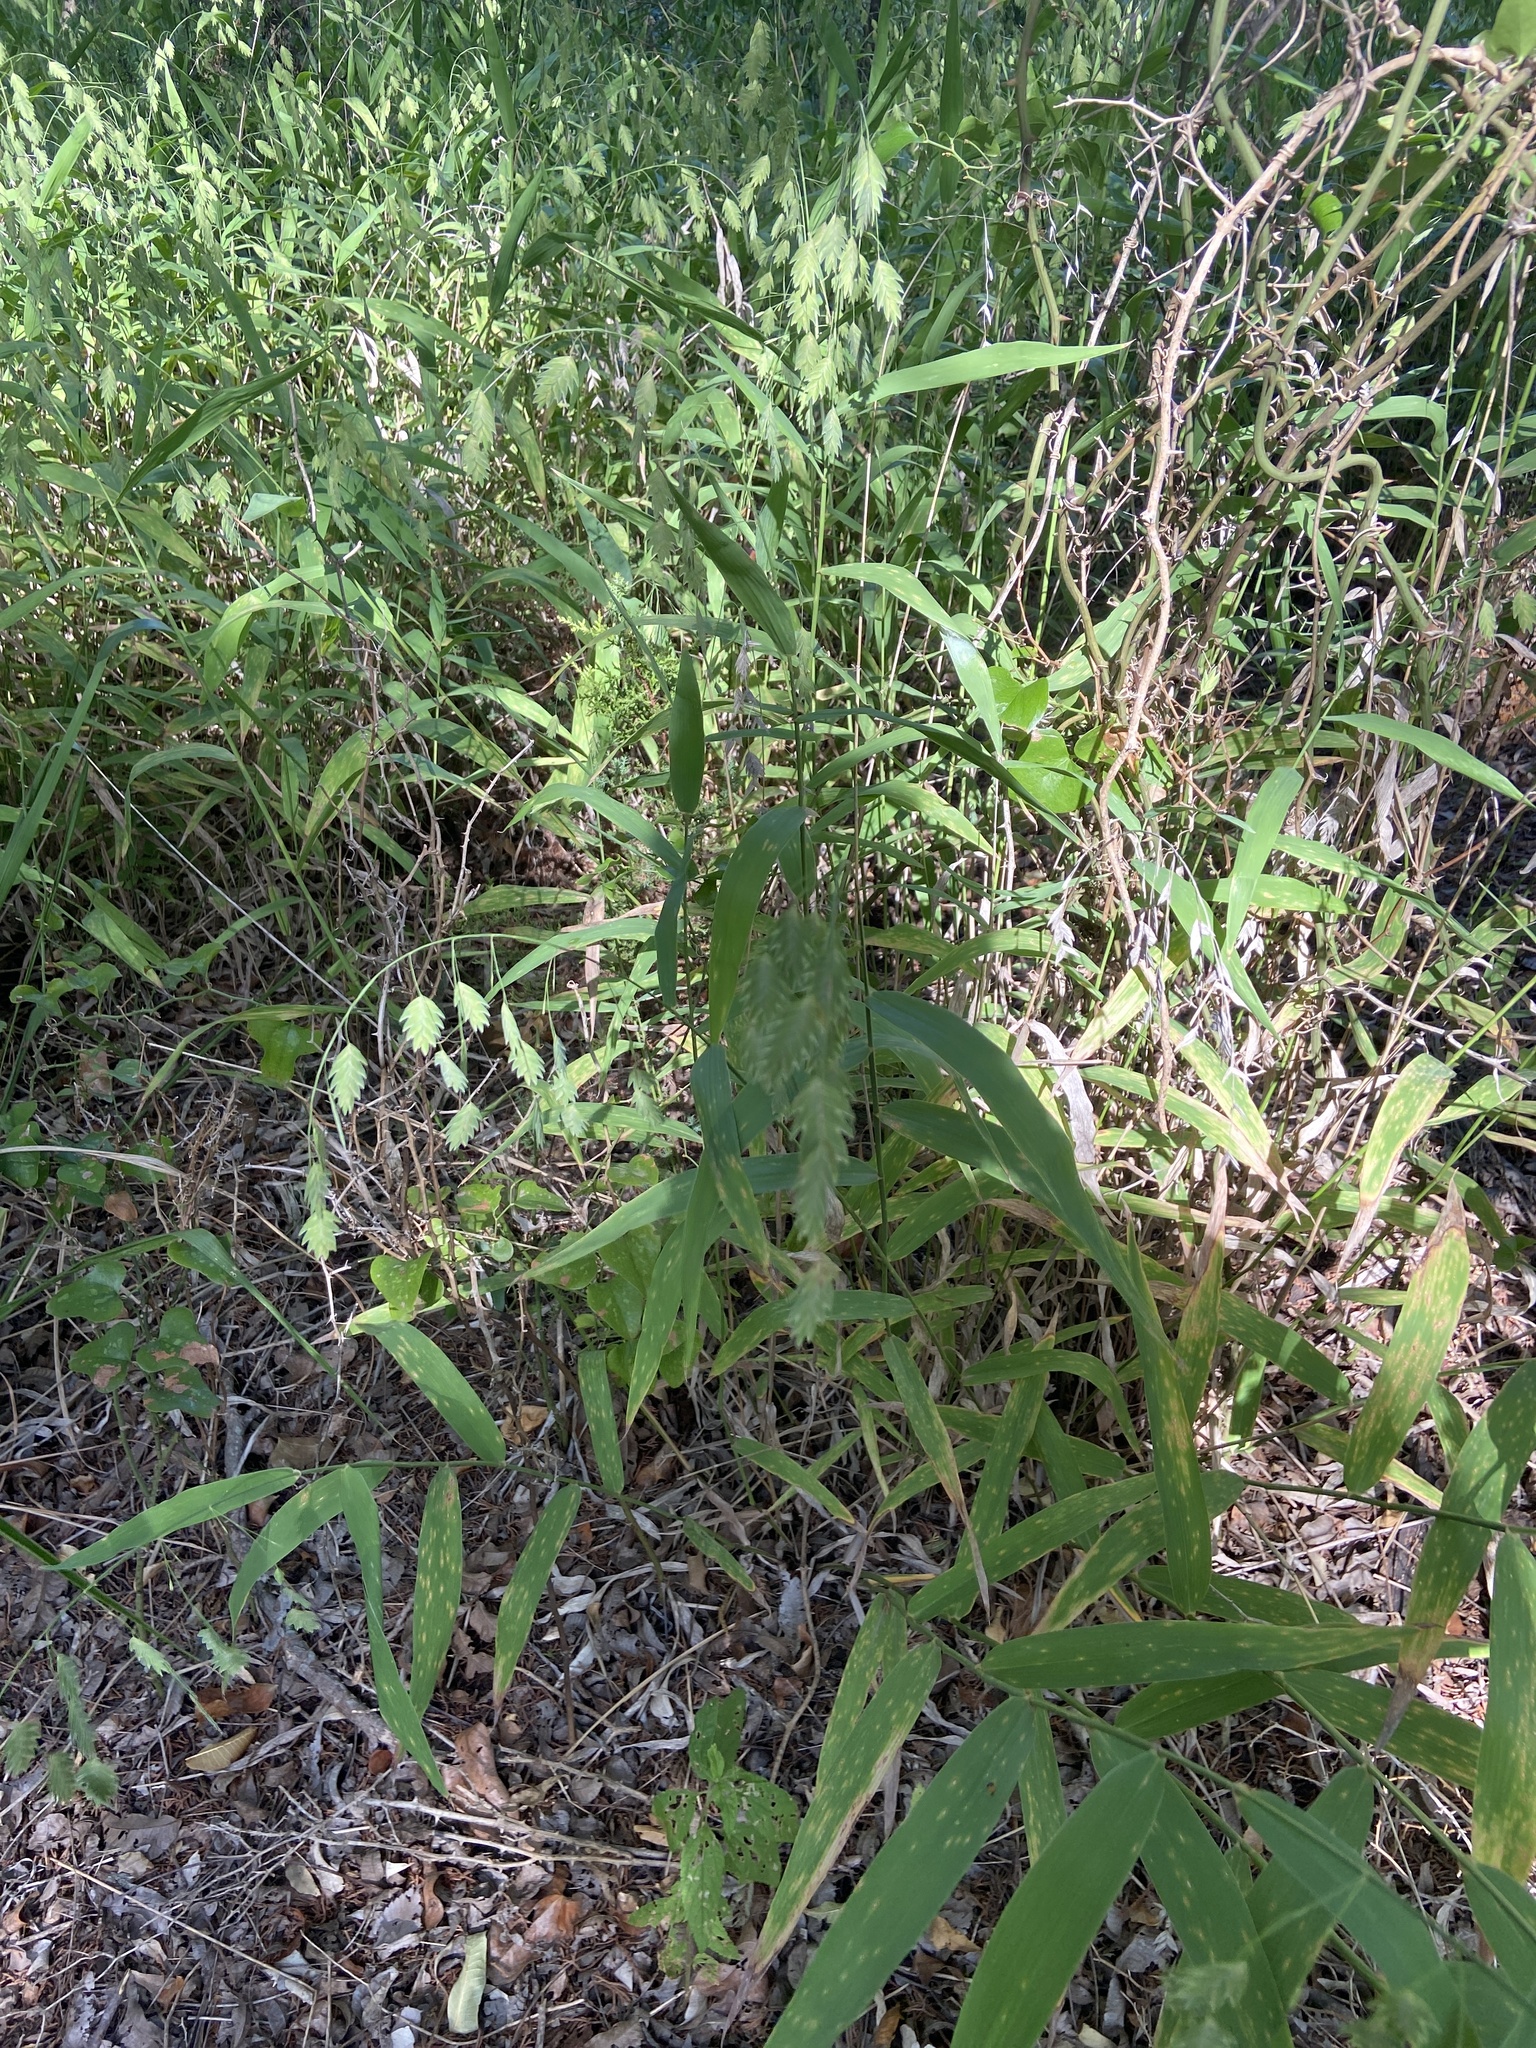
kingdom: Plantae
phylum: Tracheophyta
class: Liliopsida
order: Poales
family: Poaceae
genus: Chasmanthium
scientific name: Chasmanthium latifolium
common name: Broad-leaved chasmanthium
